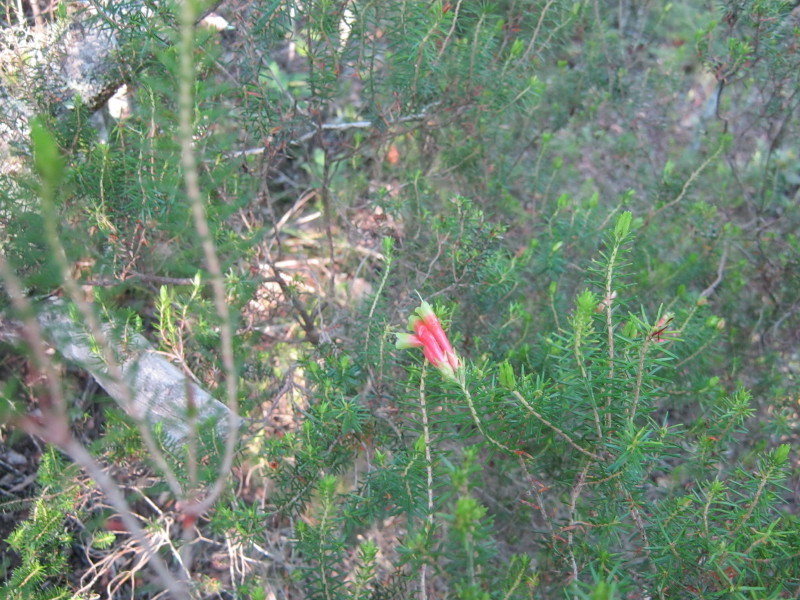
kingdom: Plantae
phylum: Tracheophyta
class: Magnoliopsida
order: Ericales
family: Ericaceae
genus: Erica
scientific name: Erica glandulosa
